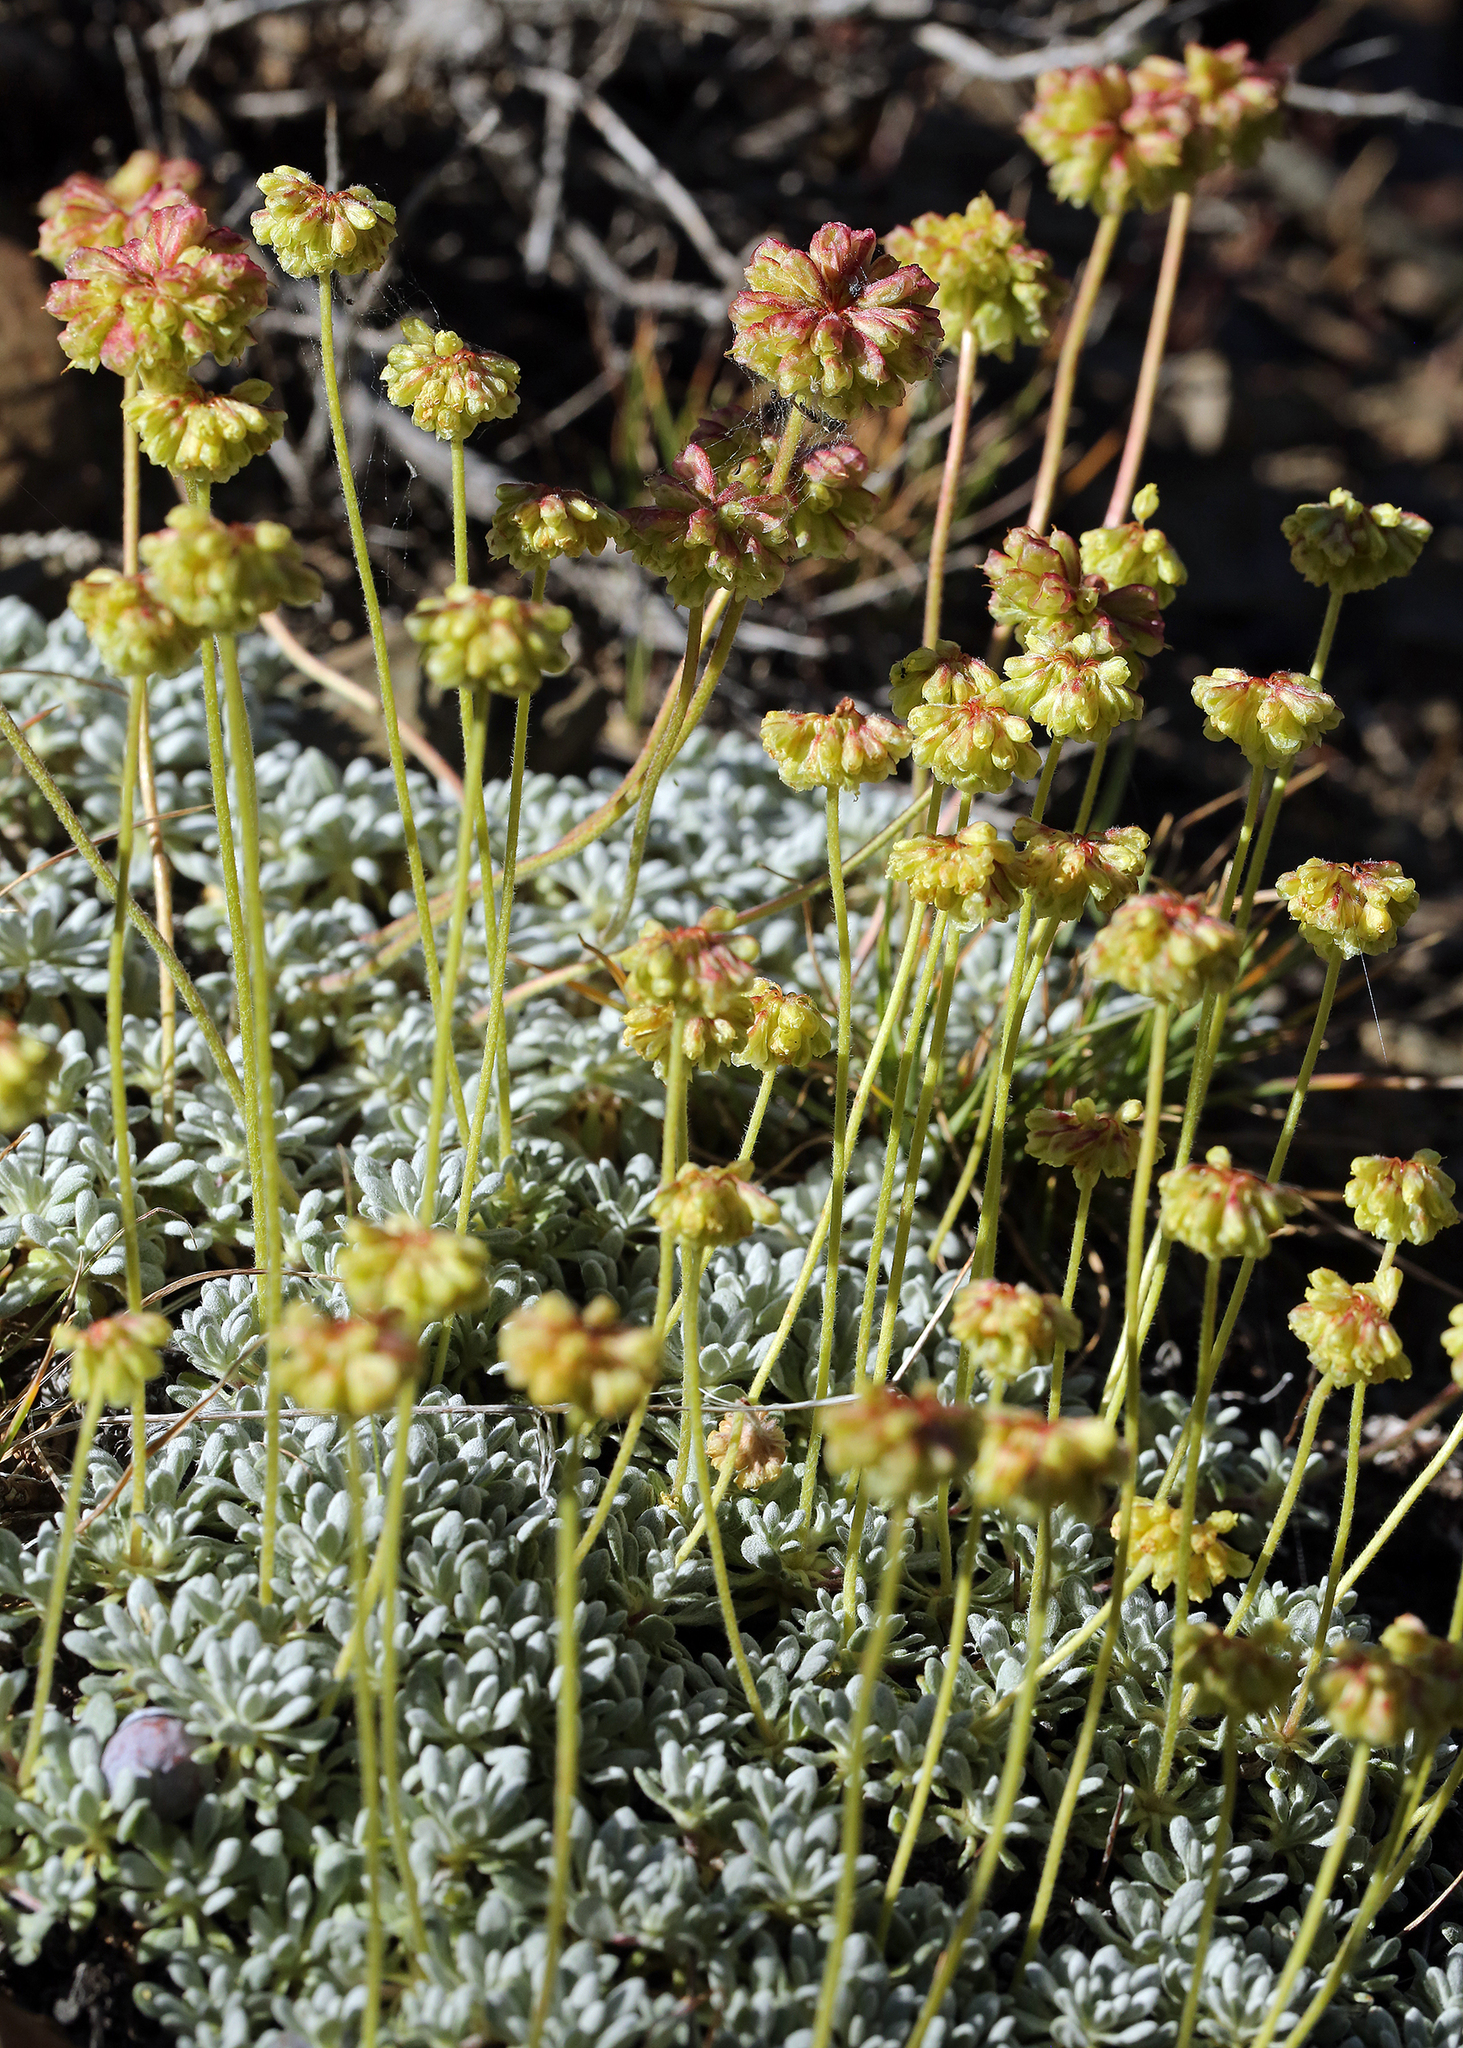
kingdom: Plantae
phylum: Tracheophyta
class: Magnoliopsida
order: Caryophyllales
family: Polygonaceae
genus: Eriogonum
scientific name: Eriogonum caespitosum
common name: Matted wild buckwheat
